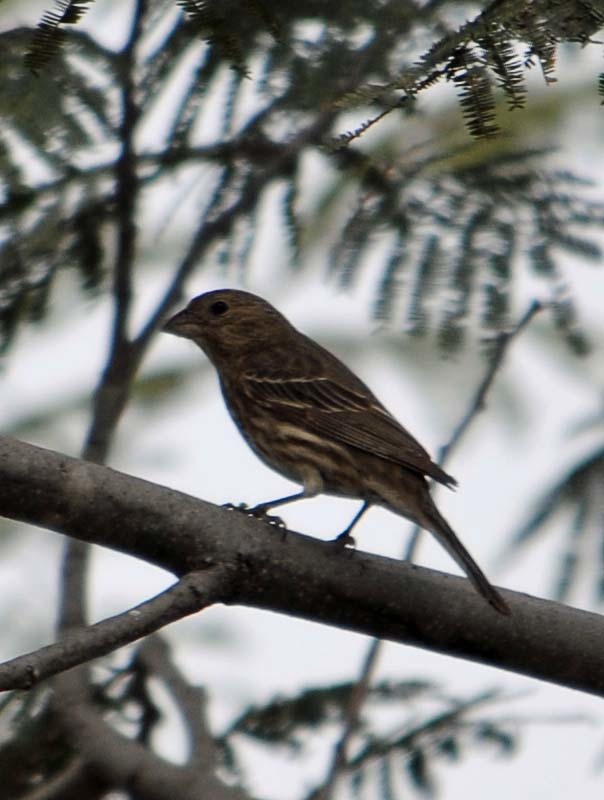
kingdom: Animalia
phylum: Chordata
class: Aves
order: Passeriformes
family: Fringillidae
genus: Haemorhous
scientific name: Haemorhous mexicanus
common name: House finch
